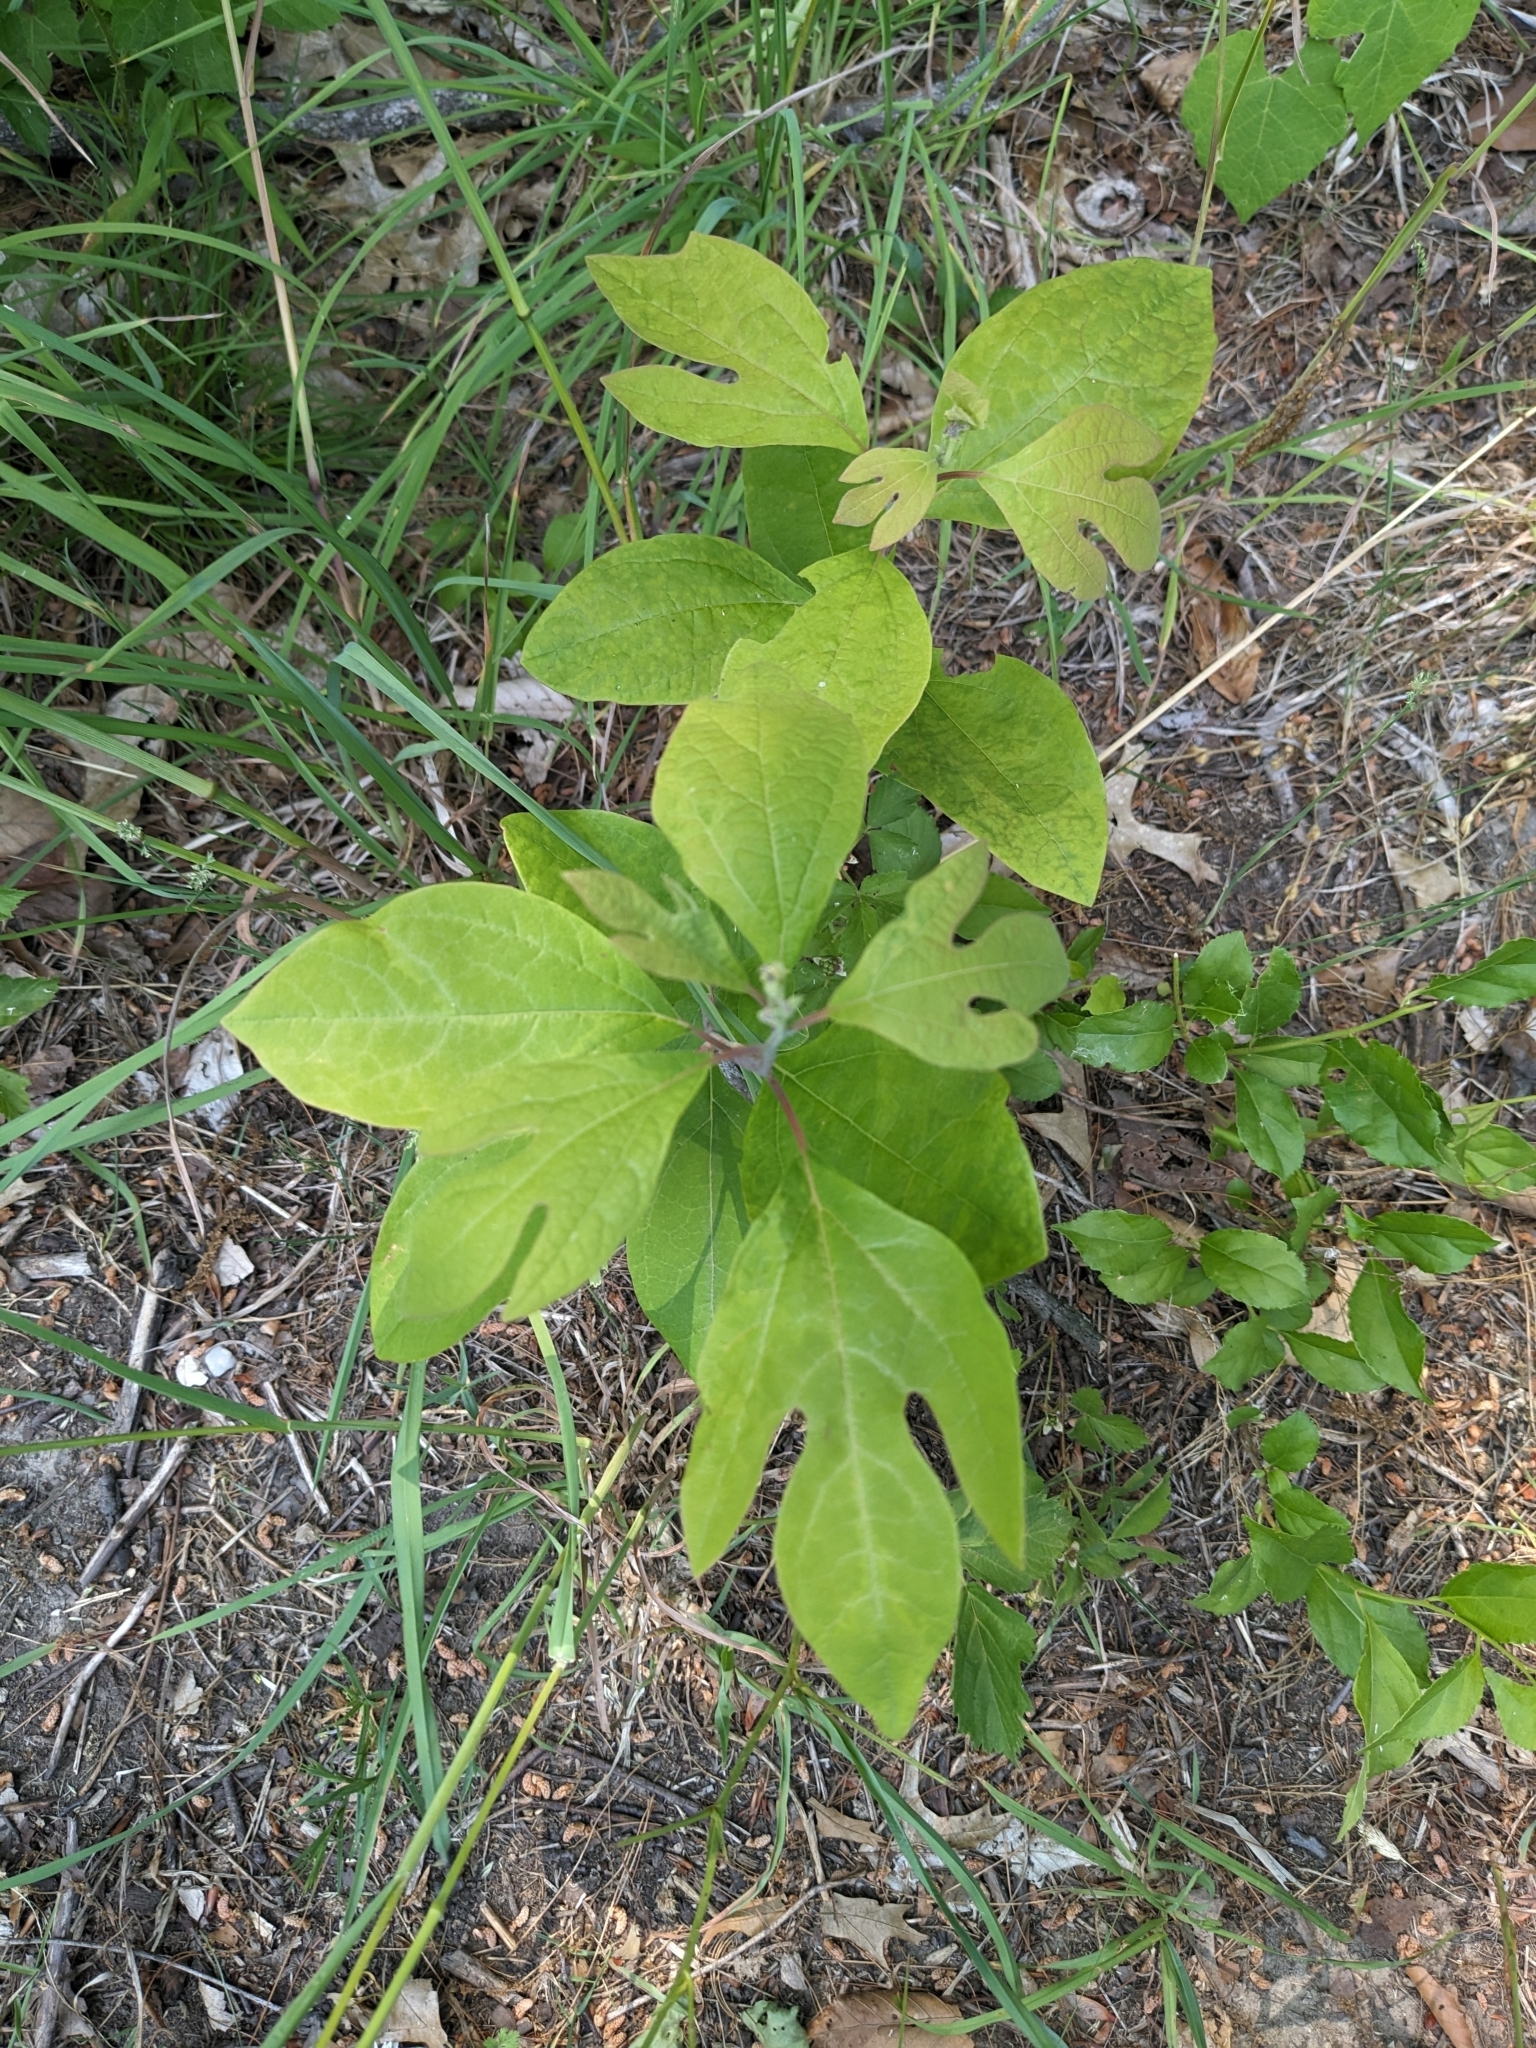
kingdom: Plantae
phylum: Tracheophyta
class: Magnoliopsida
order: Laurales
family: Lauraceae
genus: Sassafras
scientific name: Sassafras albidum
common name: Sassafras
